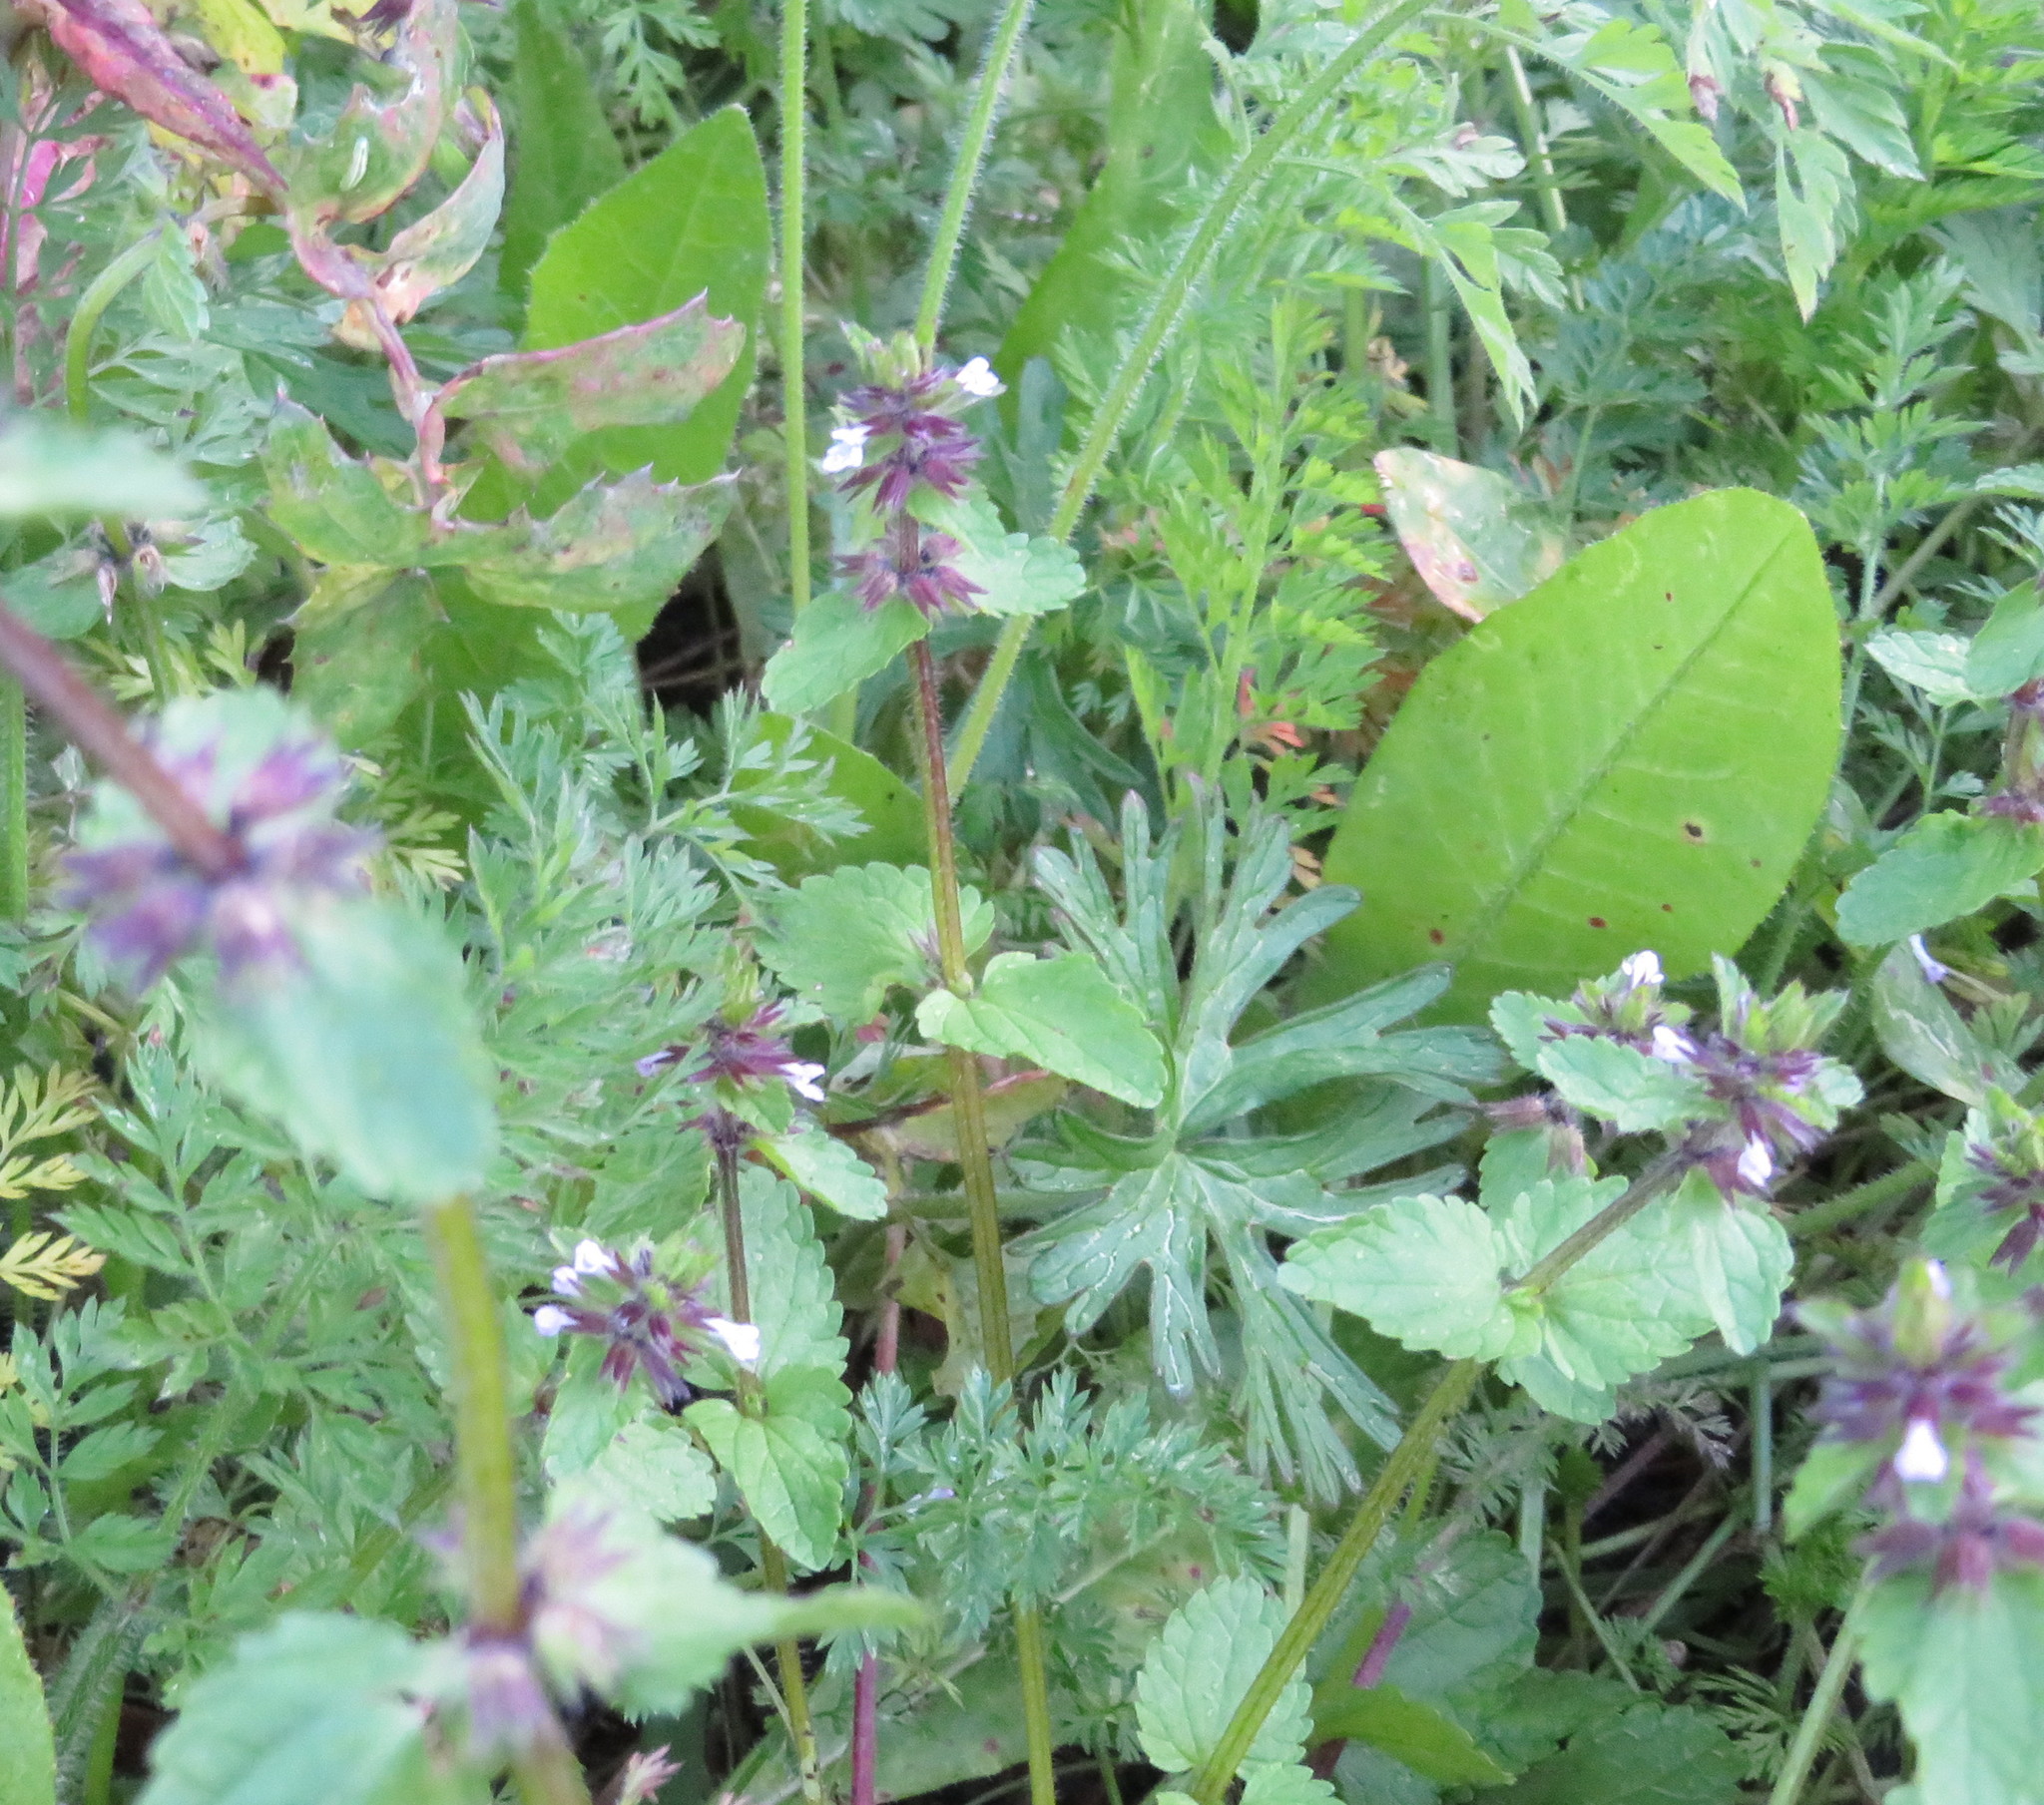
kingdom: Plantae
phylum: Tracheophyta
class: Magnoliopsida
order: Lamiales
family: Lamiaceae
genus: Stachys
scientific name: Stachys arvensis
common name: Field woundwort
